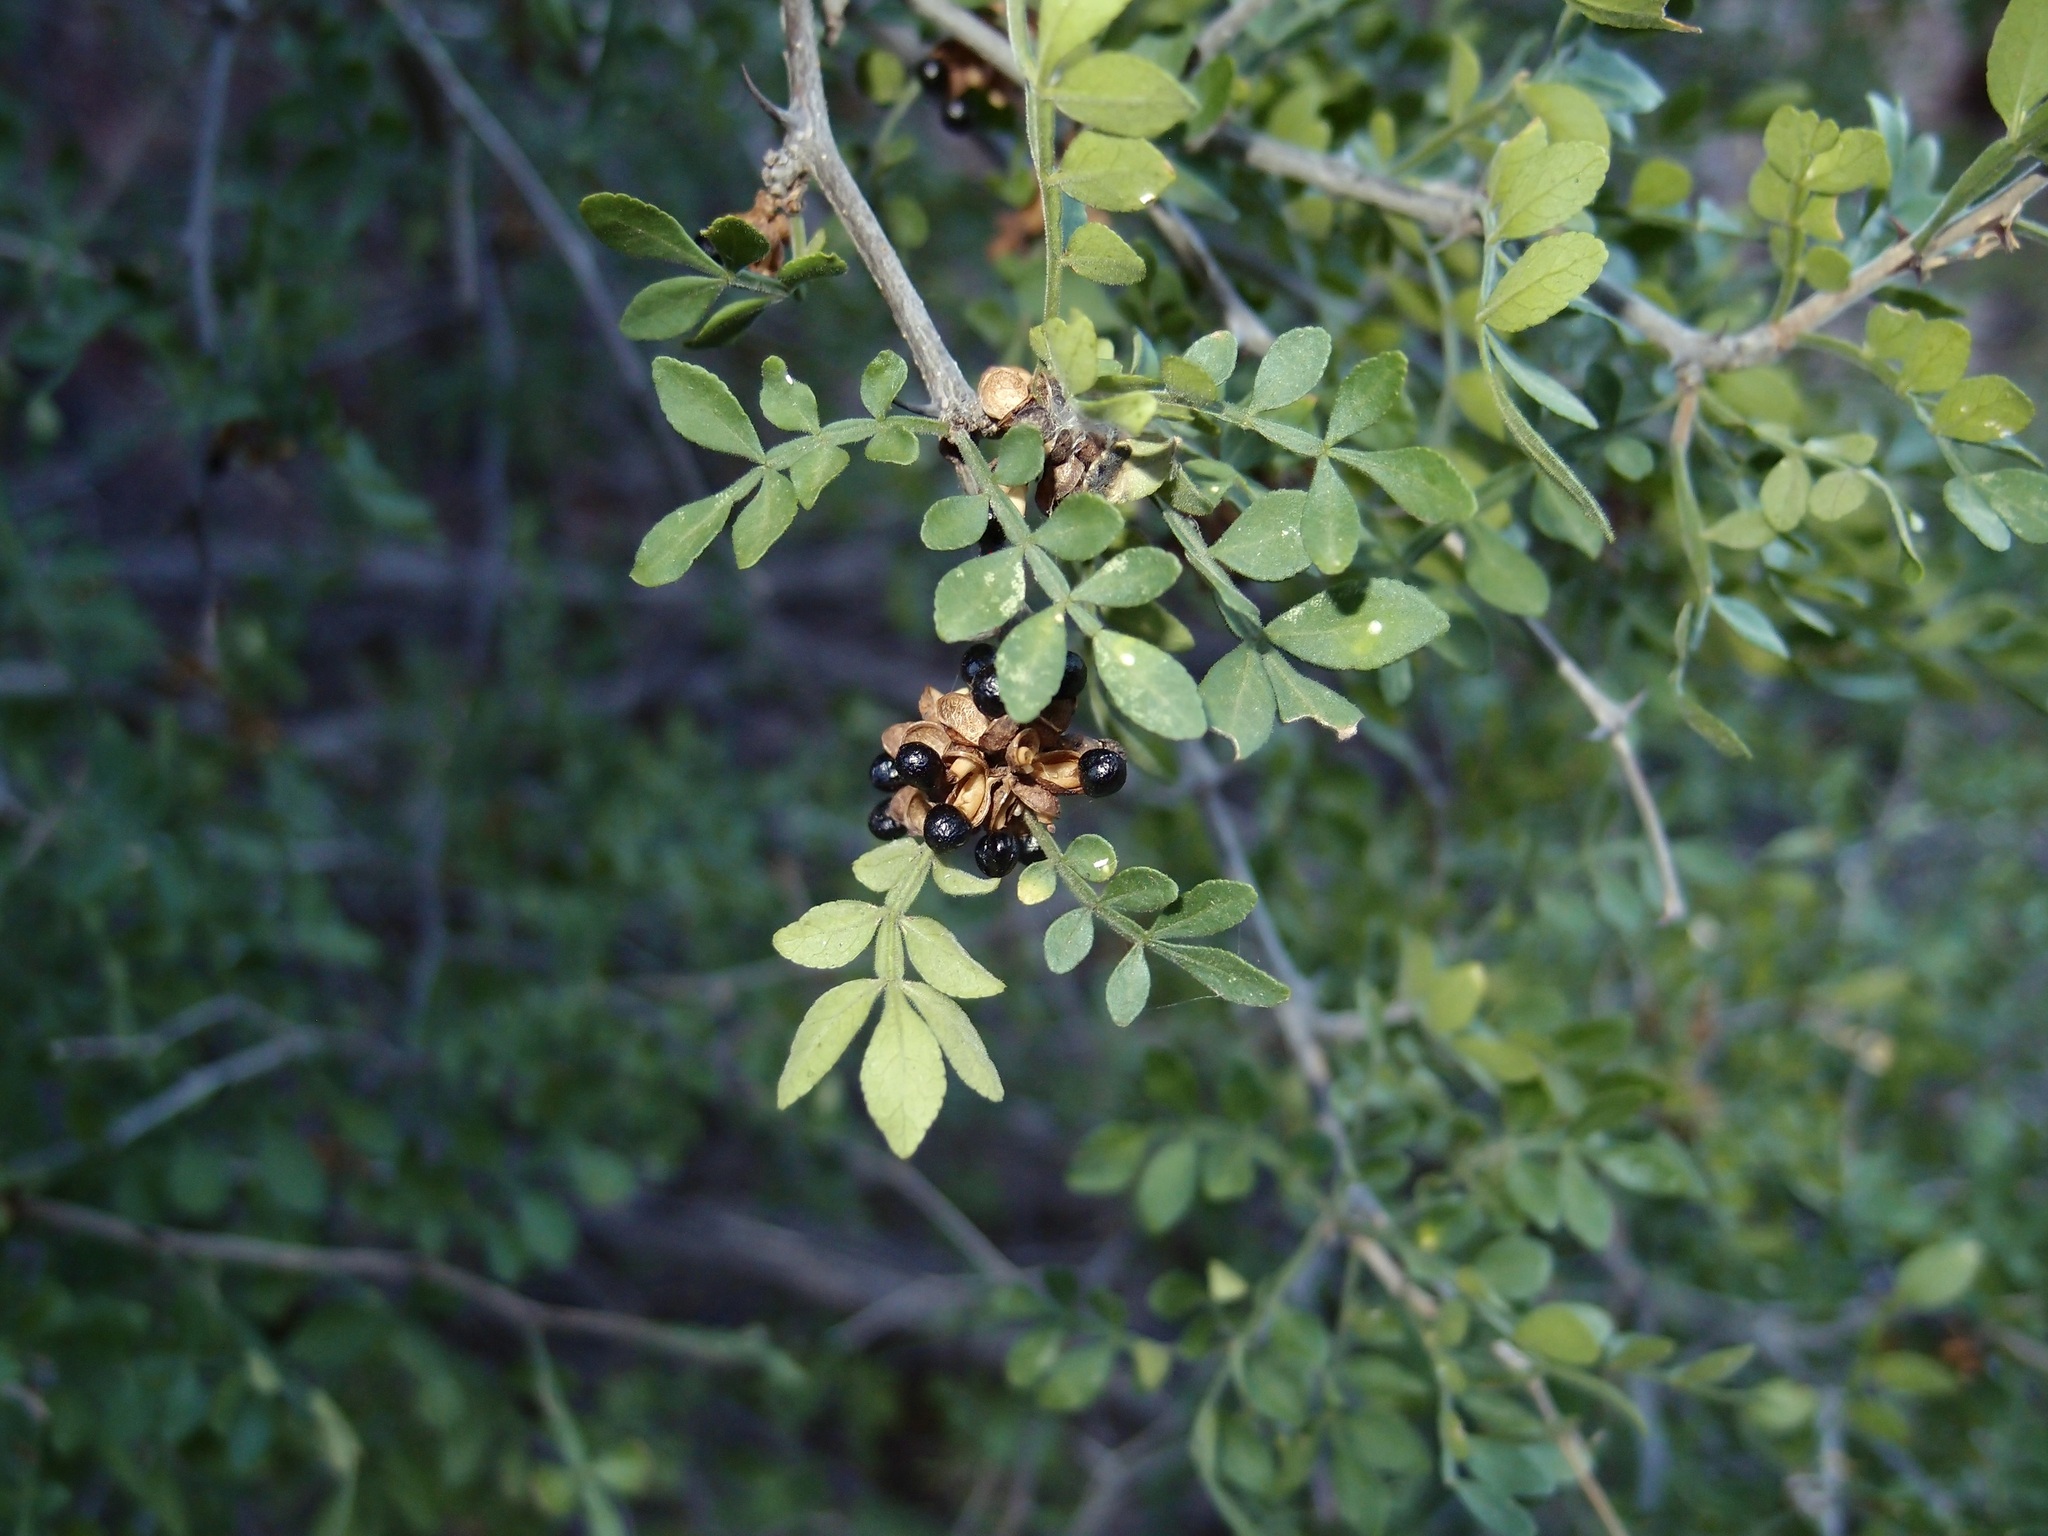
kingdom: Plantae
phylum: Tracheophyta
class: Magnoliopsida
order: Sapindales
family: Rutaceae
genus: Zanthoxylum
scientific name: Zanthoxylum fagara
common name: Lime prickly-ash
